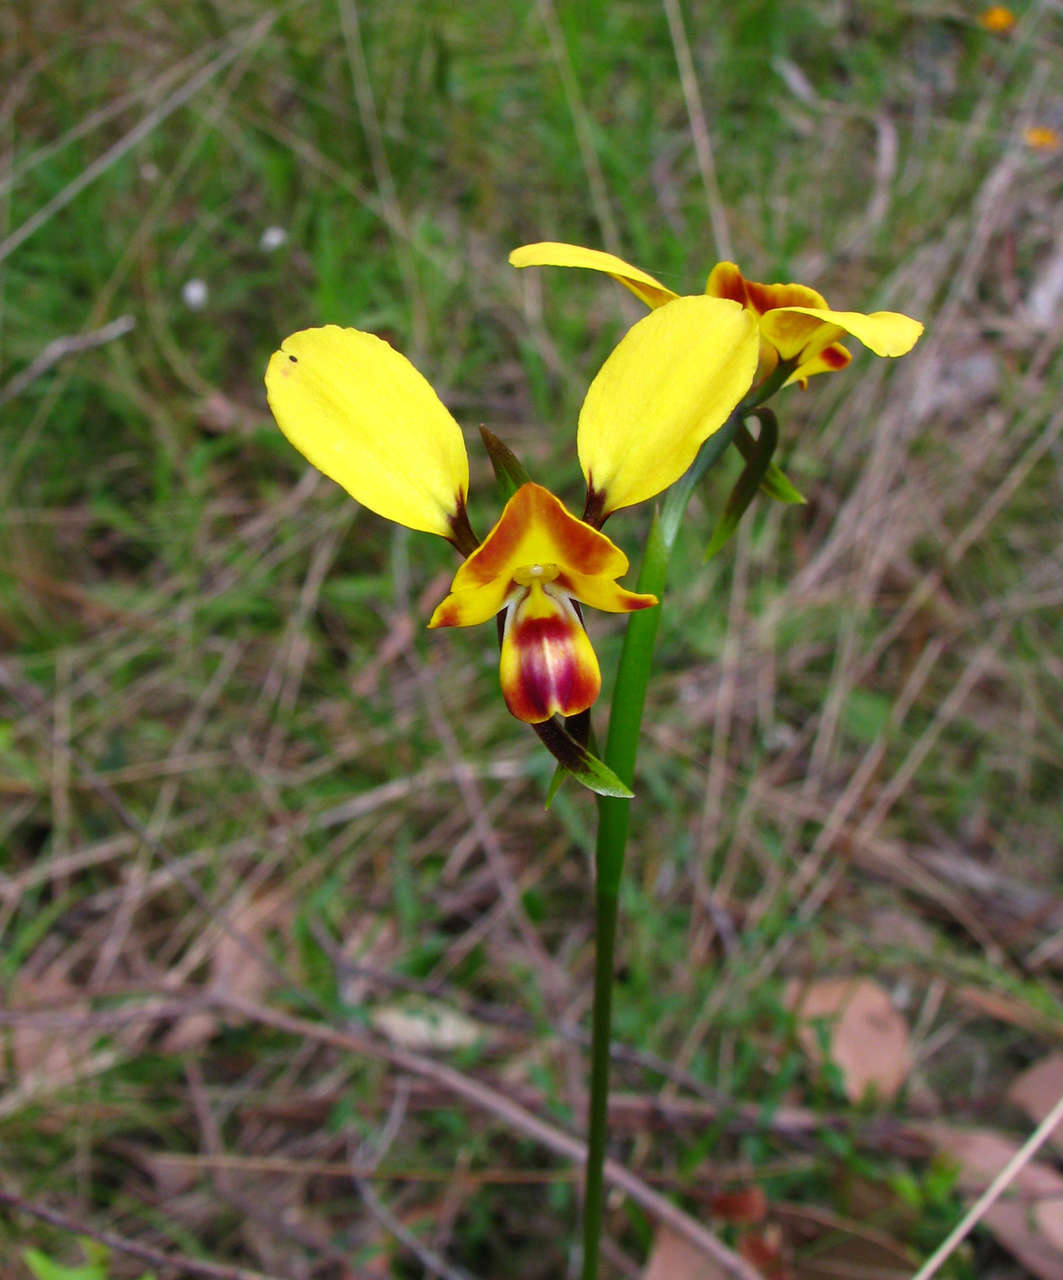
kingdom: Plantae
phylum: Tracheophyta
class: Liliopsida
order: Asparagales
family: Orchidaceae
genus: Diuris
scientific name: Diuris orientis
